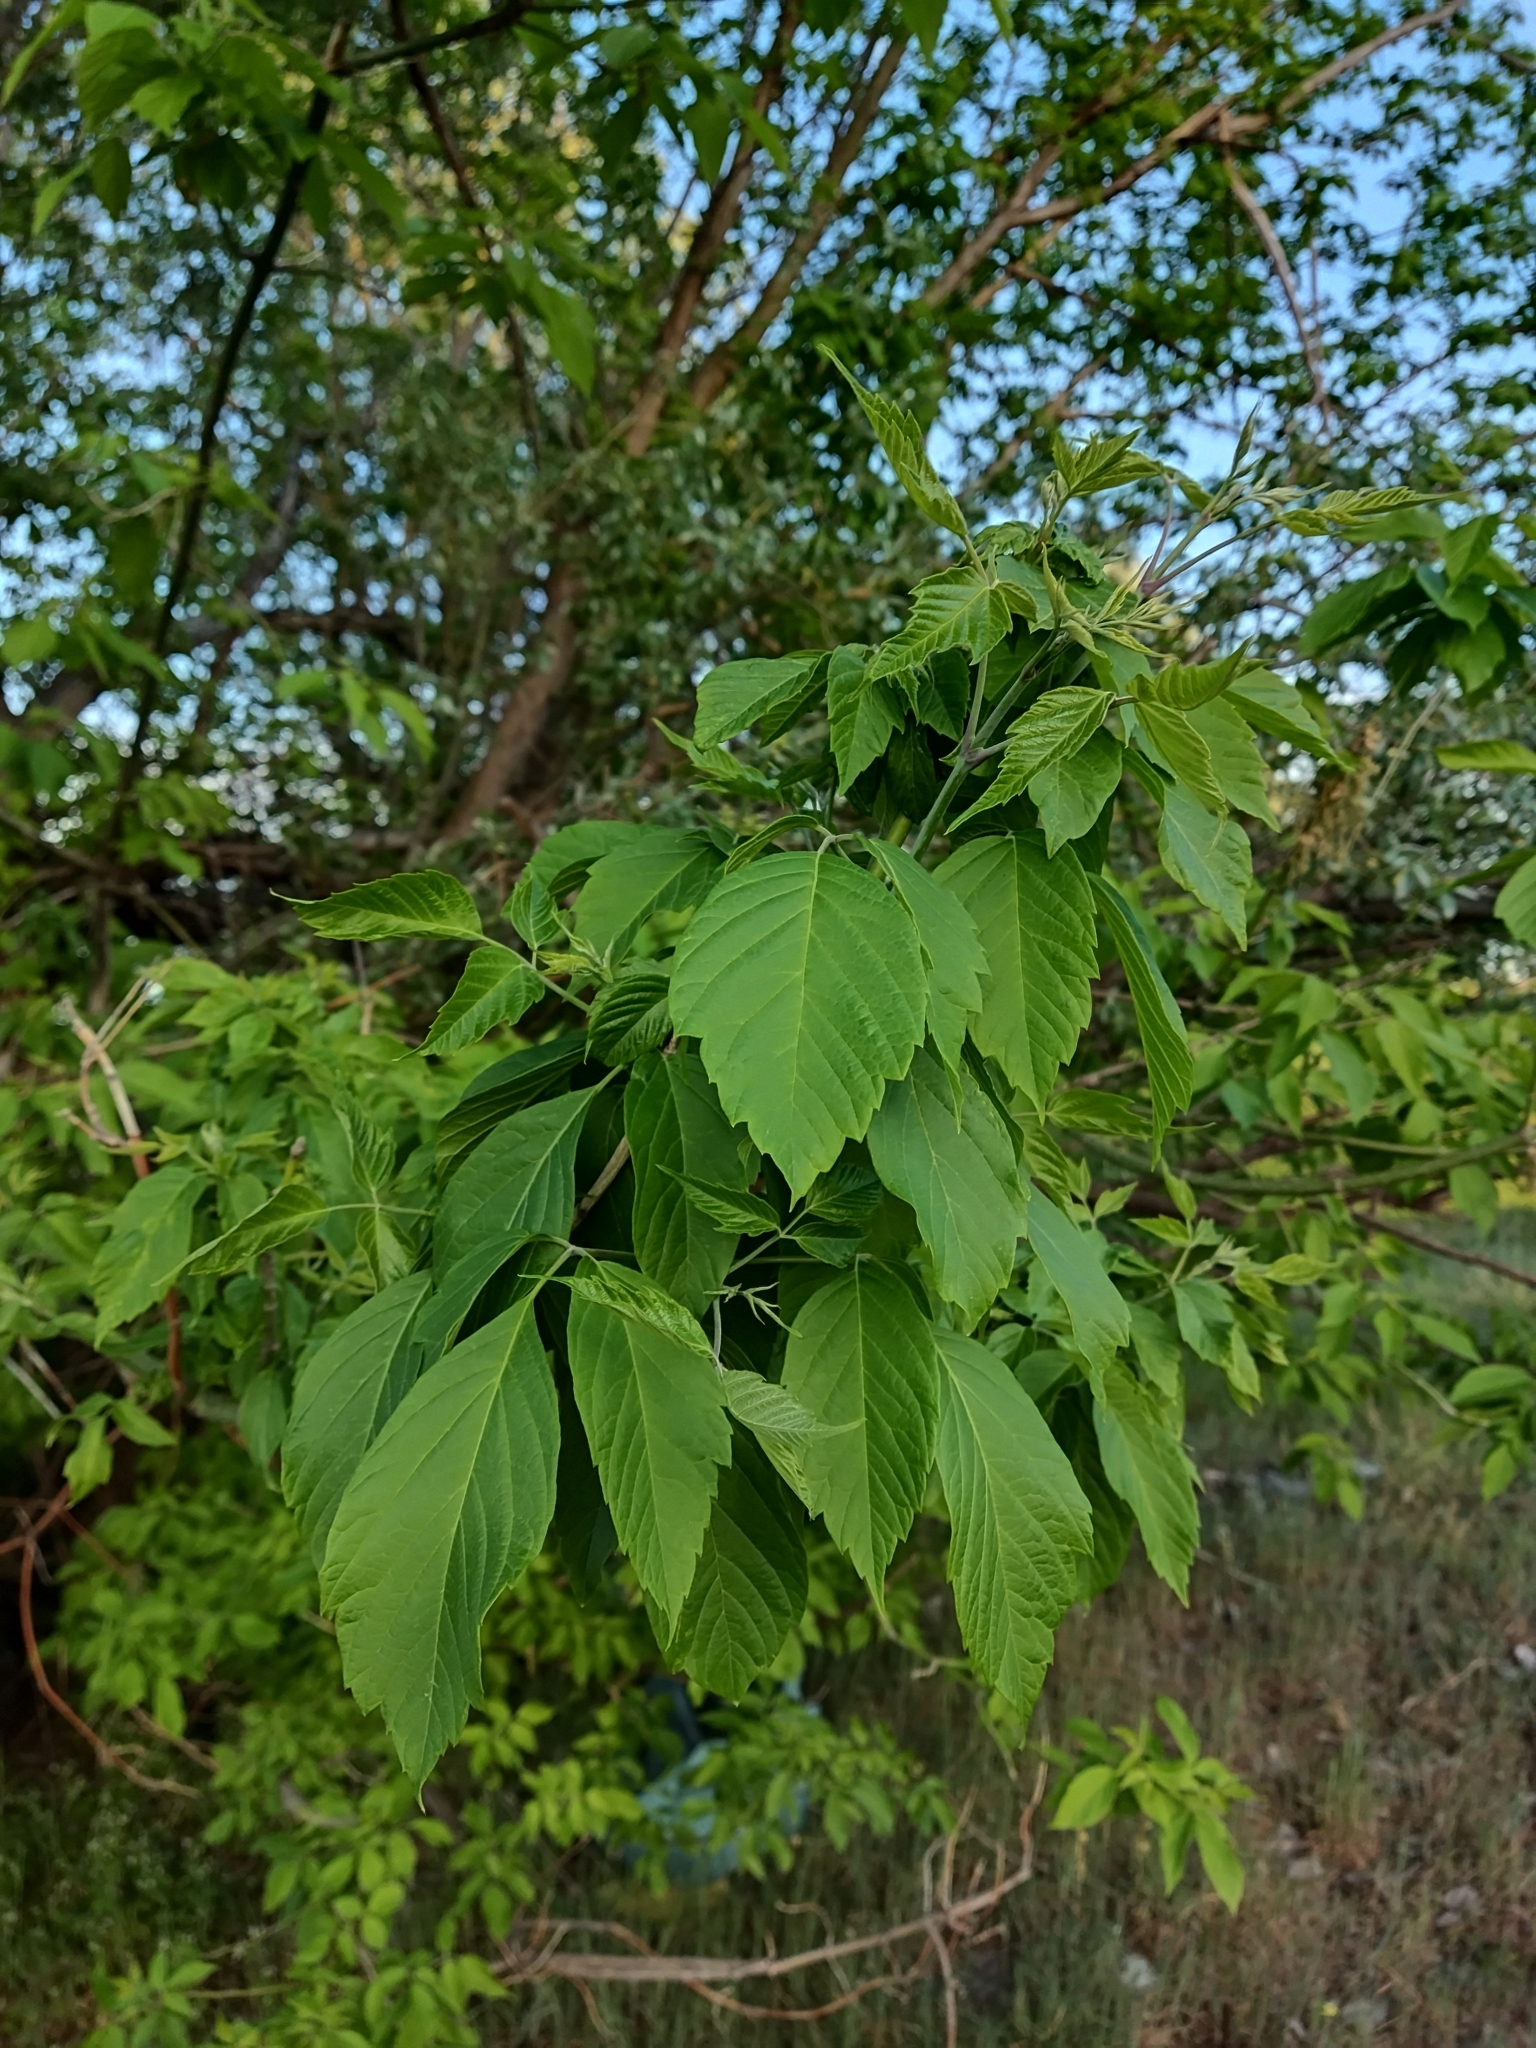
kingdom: Plantae
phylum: Tracheophyta
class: Magnoliopsida
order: Sapindales
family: Sapindaceae
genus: Acer
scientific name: Acer negundo
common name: Ashleaf maple
